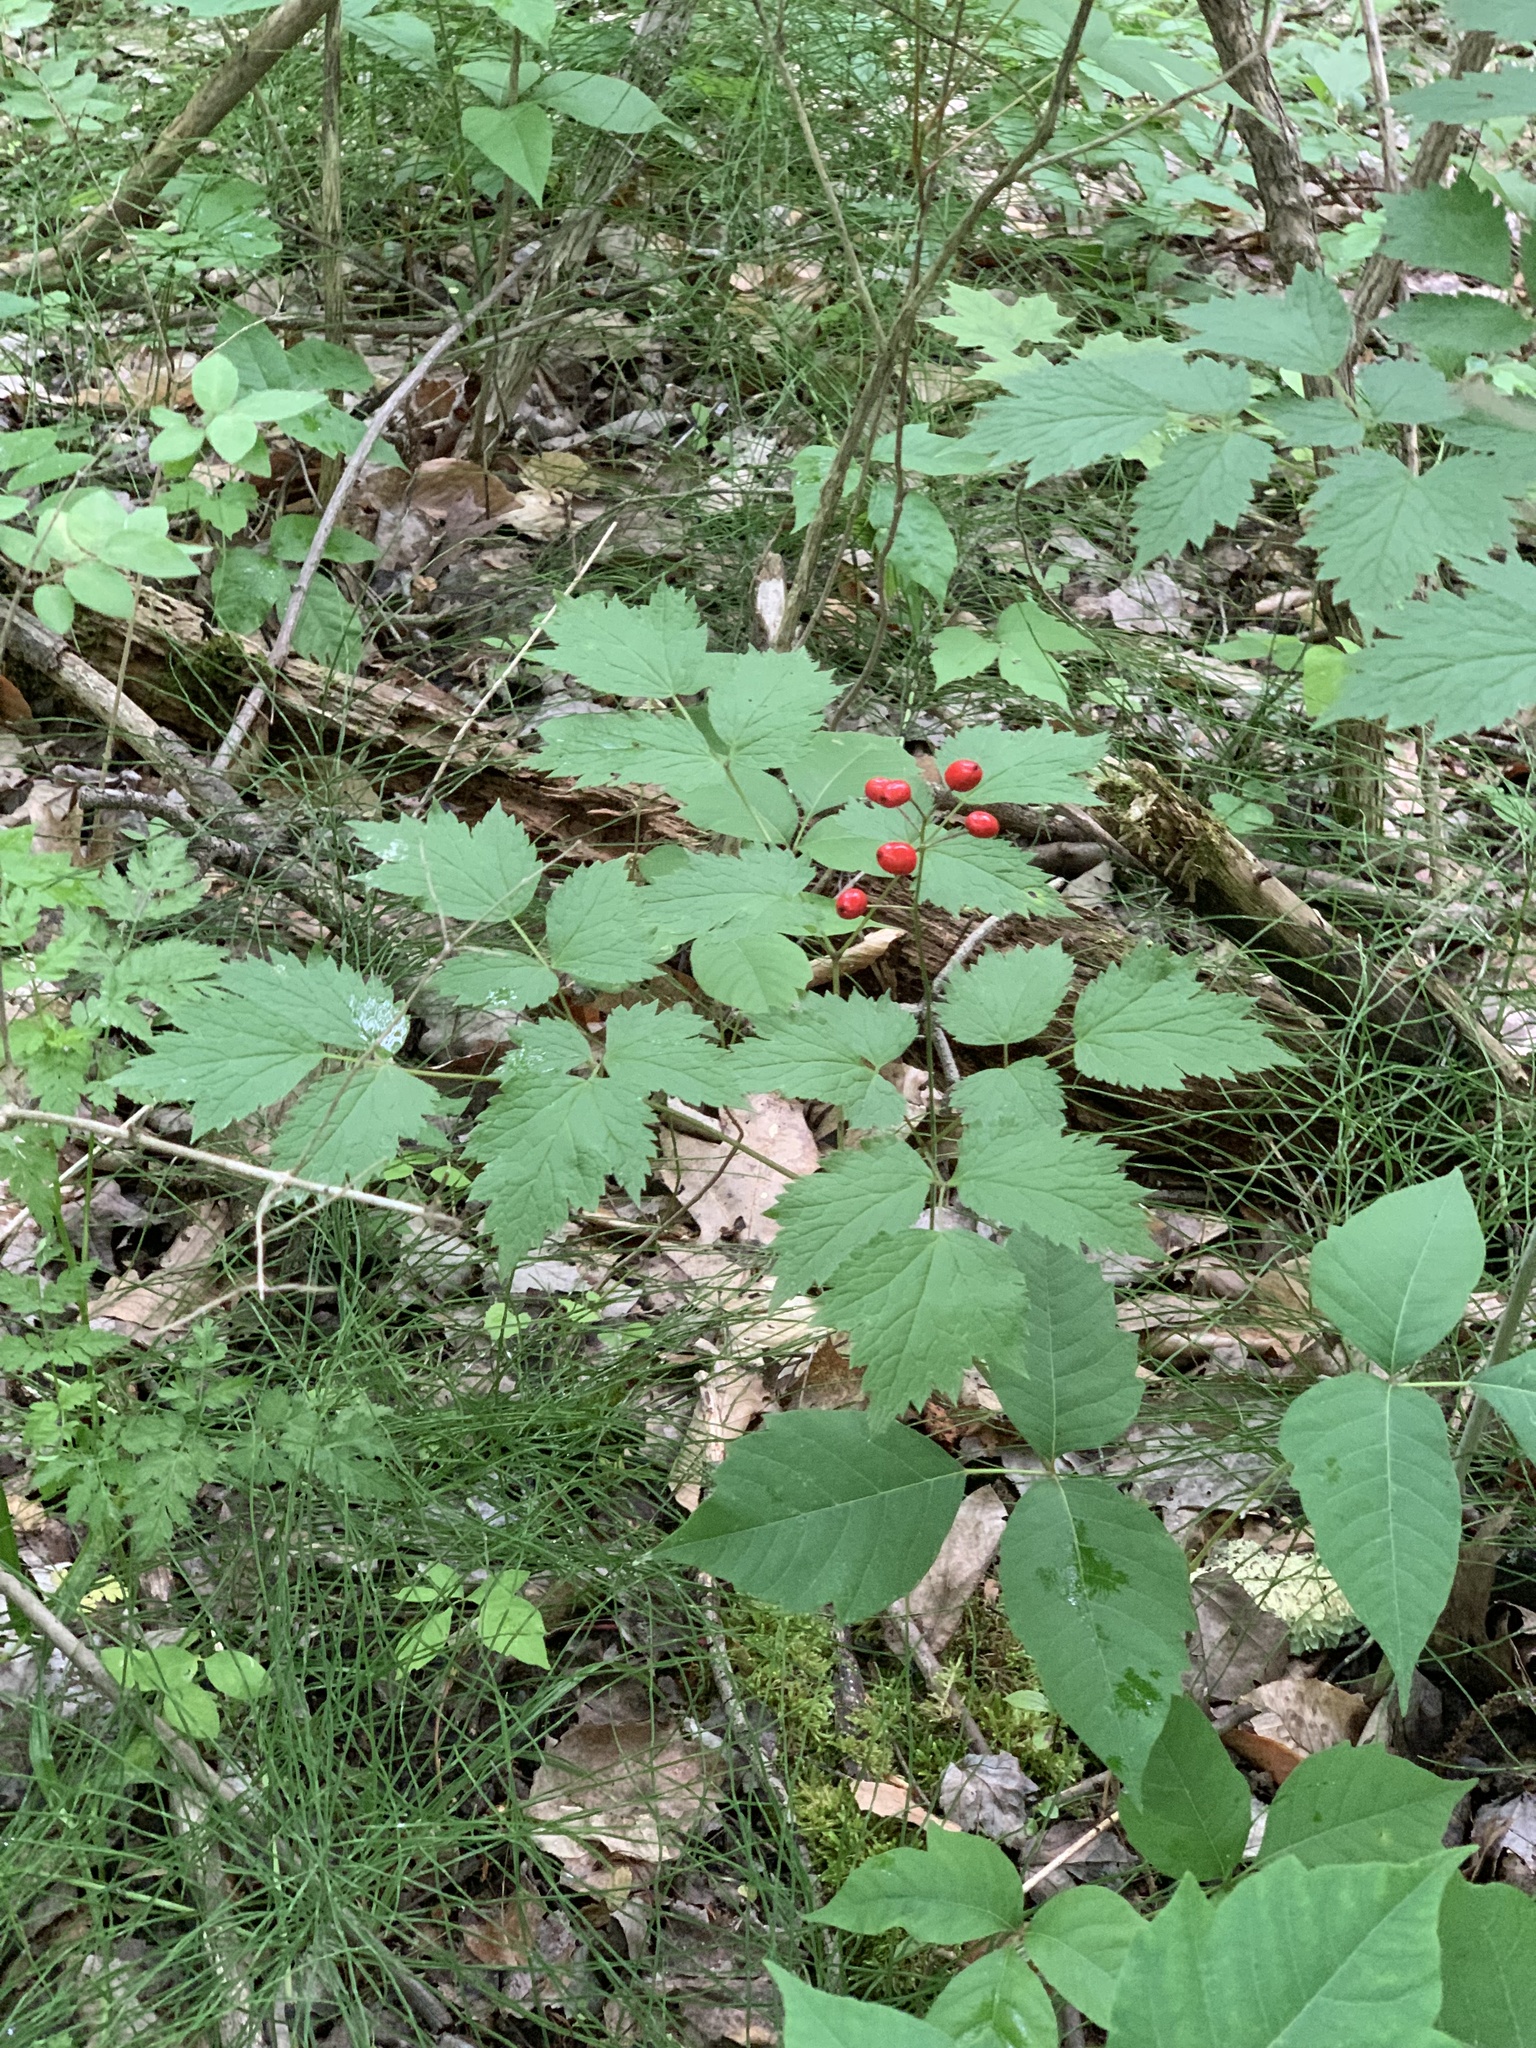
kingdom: Plantae
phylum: Tracheophyta
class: Magnoliopsida
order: Ranunculales
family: Ranunculaceae
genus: Actaea
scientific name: Actaea rubra
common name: Red baneberry
